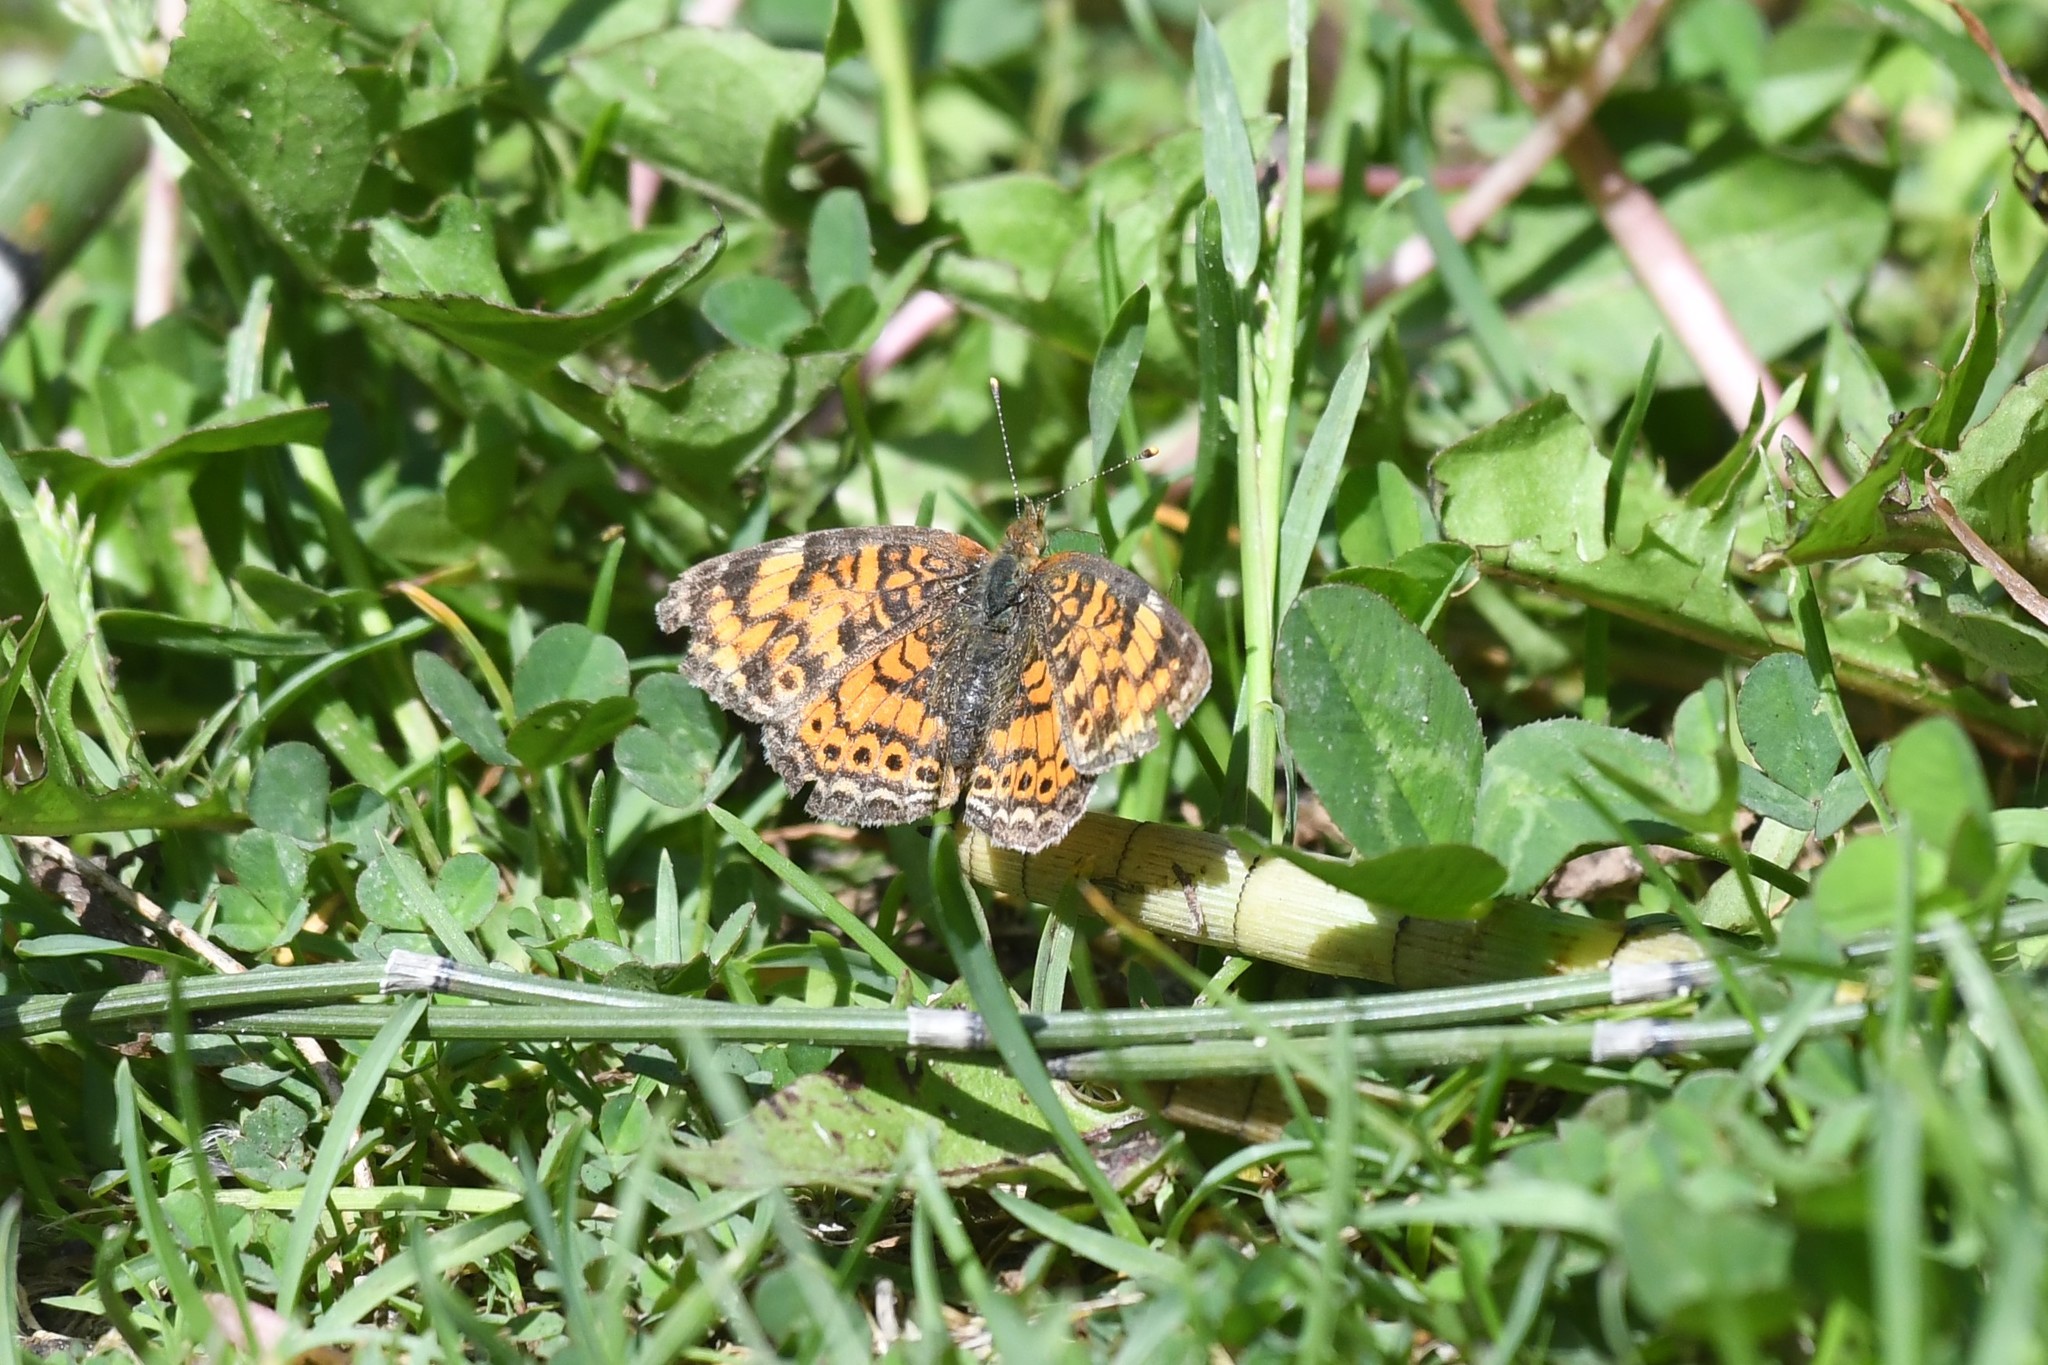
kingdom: Animalia
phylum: Arthropoda
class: Insecta
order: Lepidoptera
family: Nymphalidae
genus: Phyciodes
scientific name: Phyciodes tharos
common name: Pearl crescent
